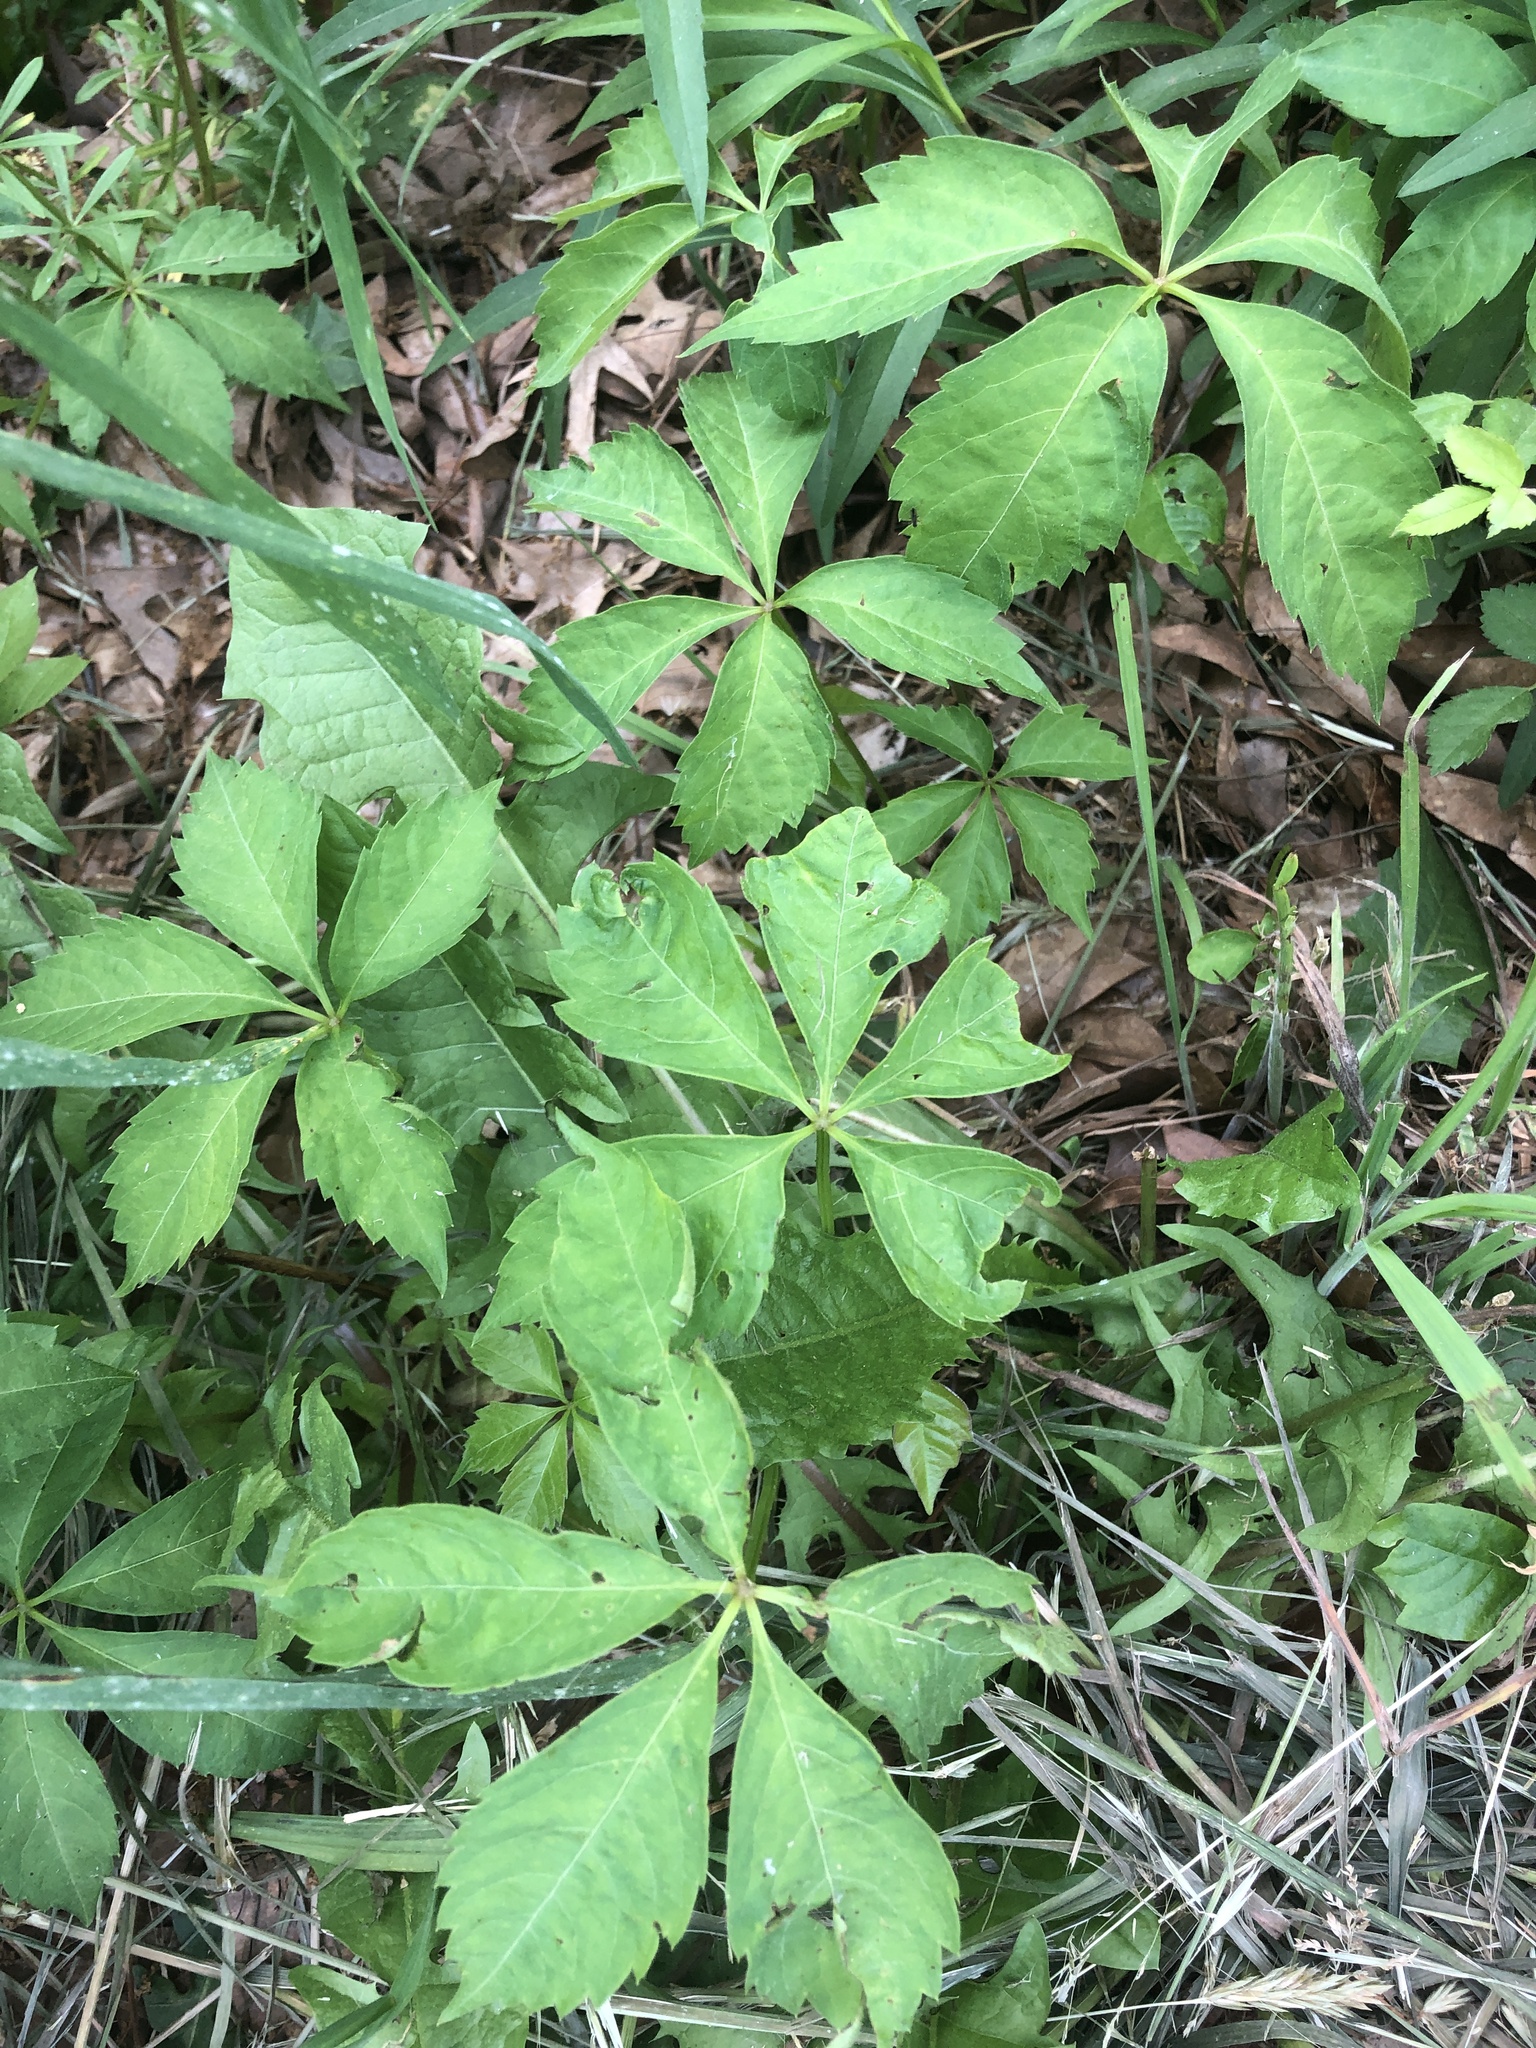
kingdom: Plantae
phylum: Tracheophyta
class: Magnoliopsida
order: Vitales
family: Vitaceae
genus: Parthenocissus
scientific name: Parthenocissus quinquefolia
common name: Virginia-creeper
